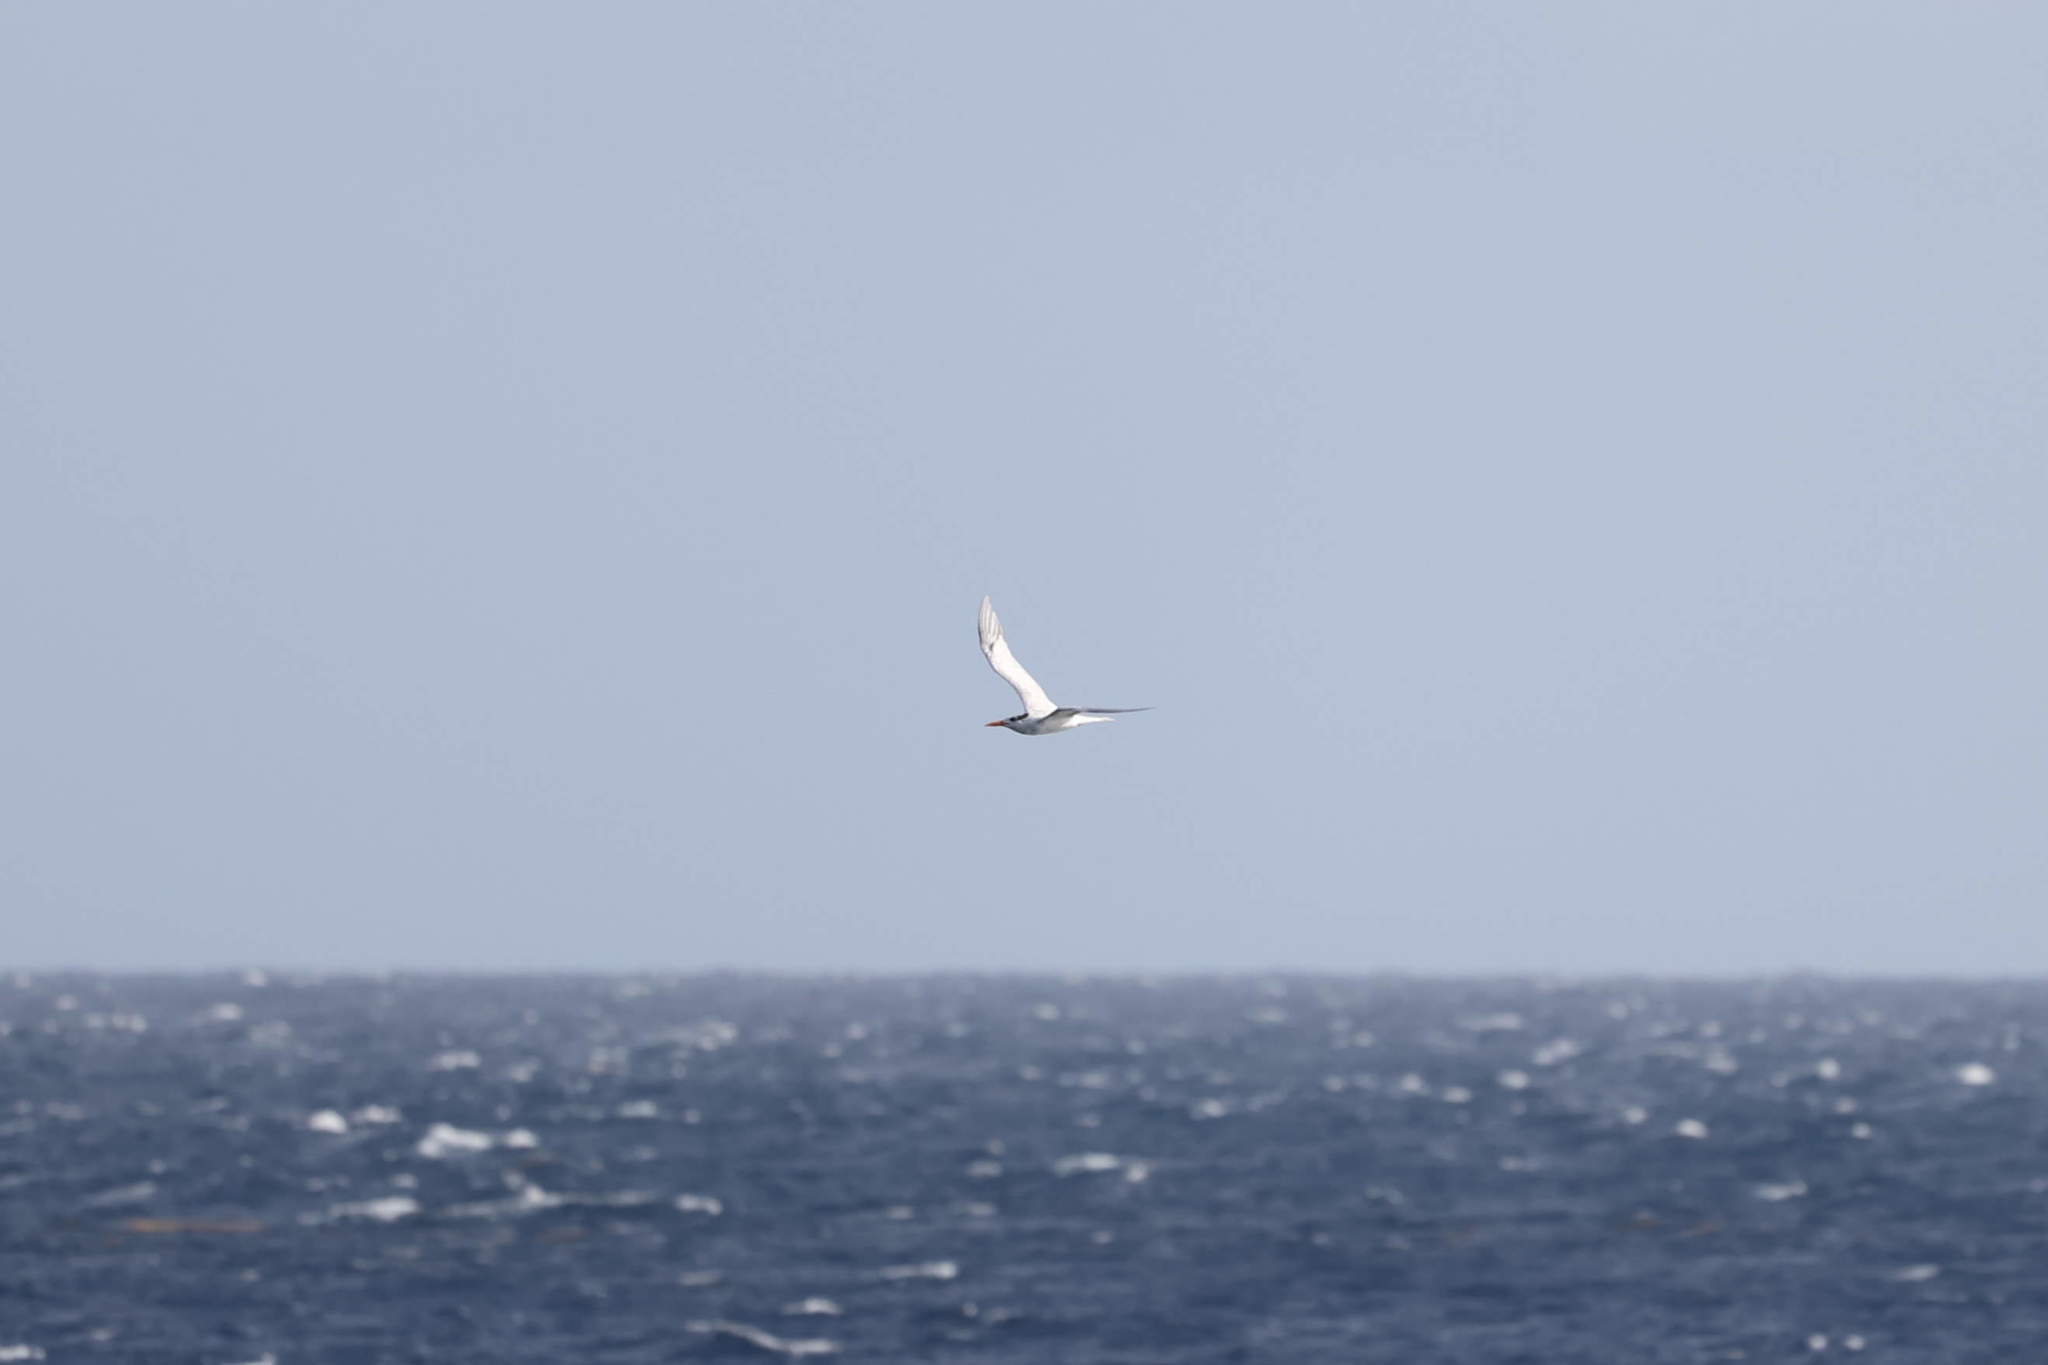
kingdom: Animalia
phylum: Chordata
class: Aves
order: Charadriiformes
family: Laridae
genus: Thalasseus
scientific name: Thalasseus maximus
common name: Royal tern
